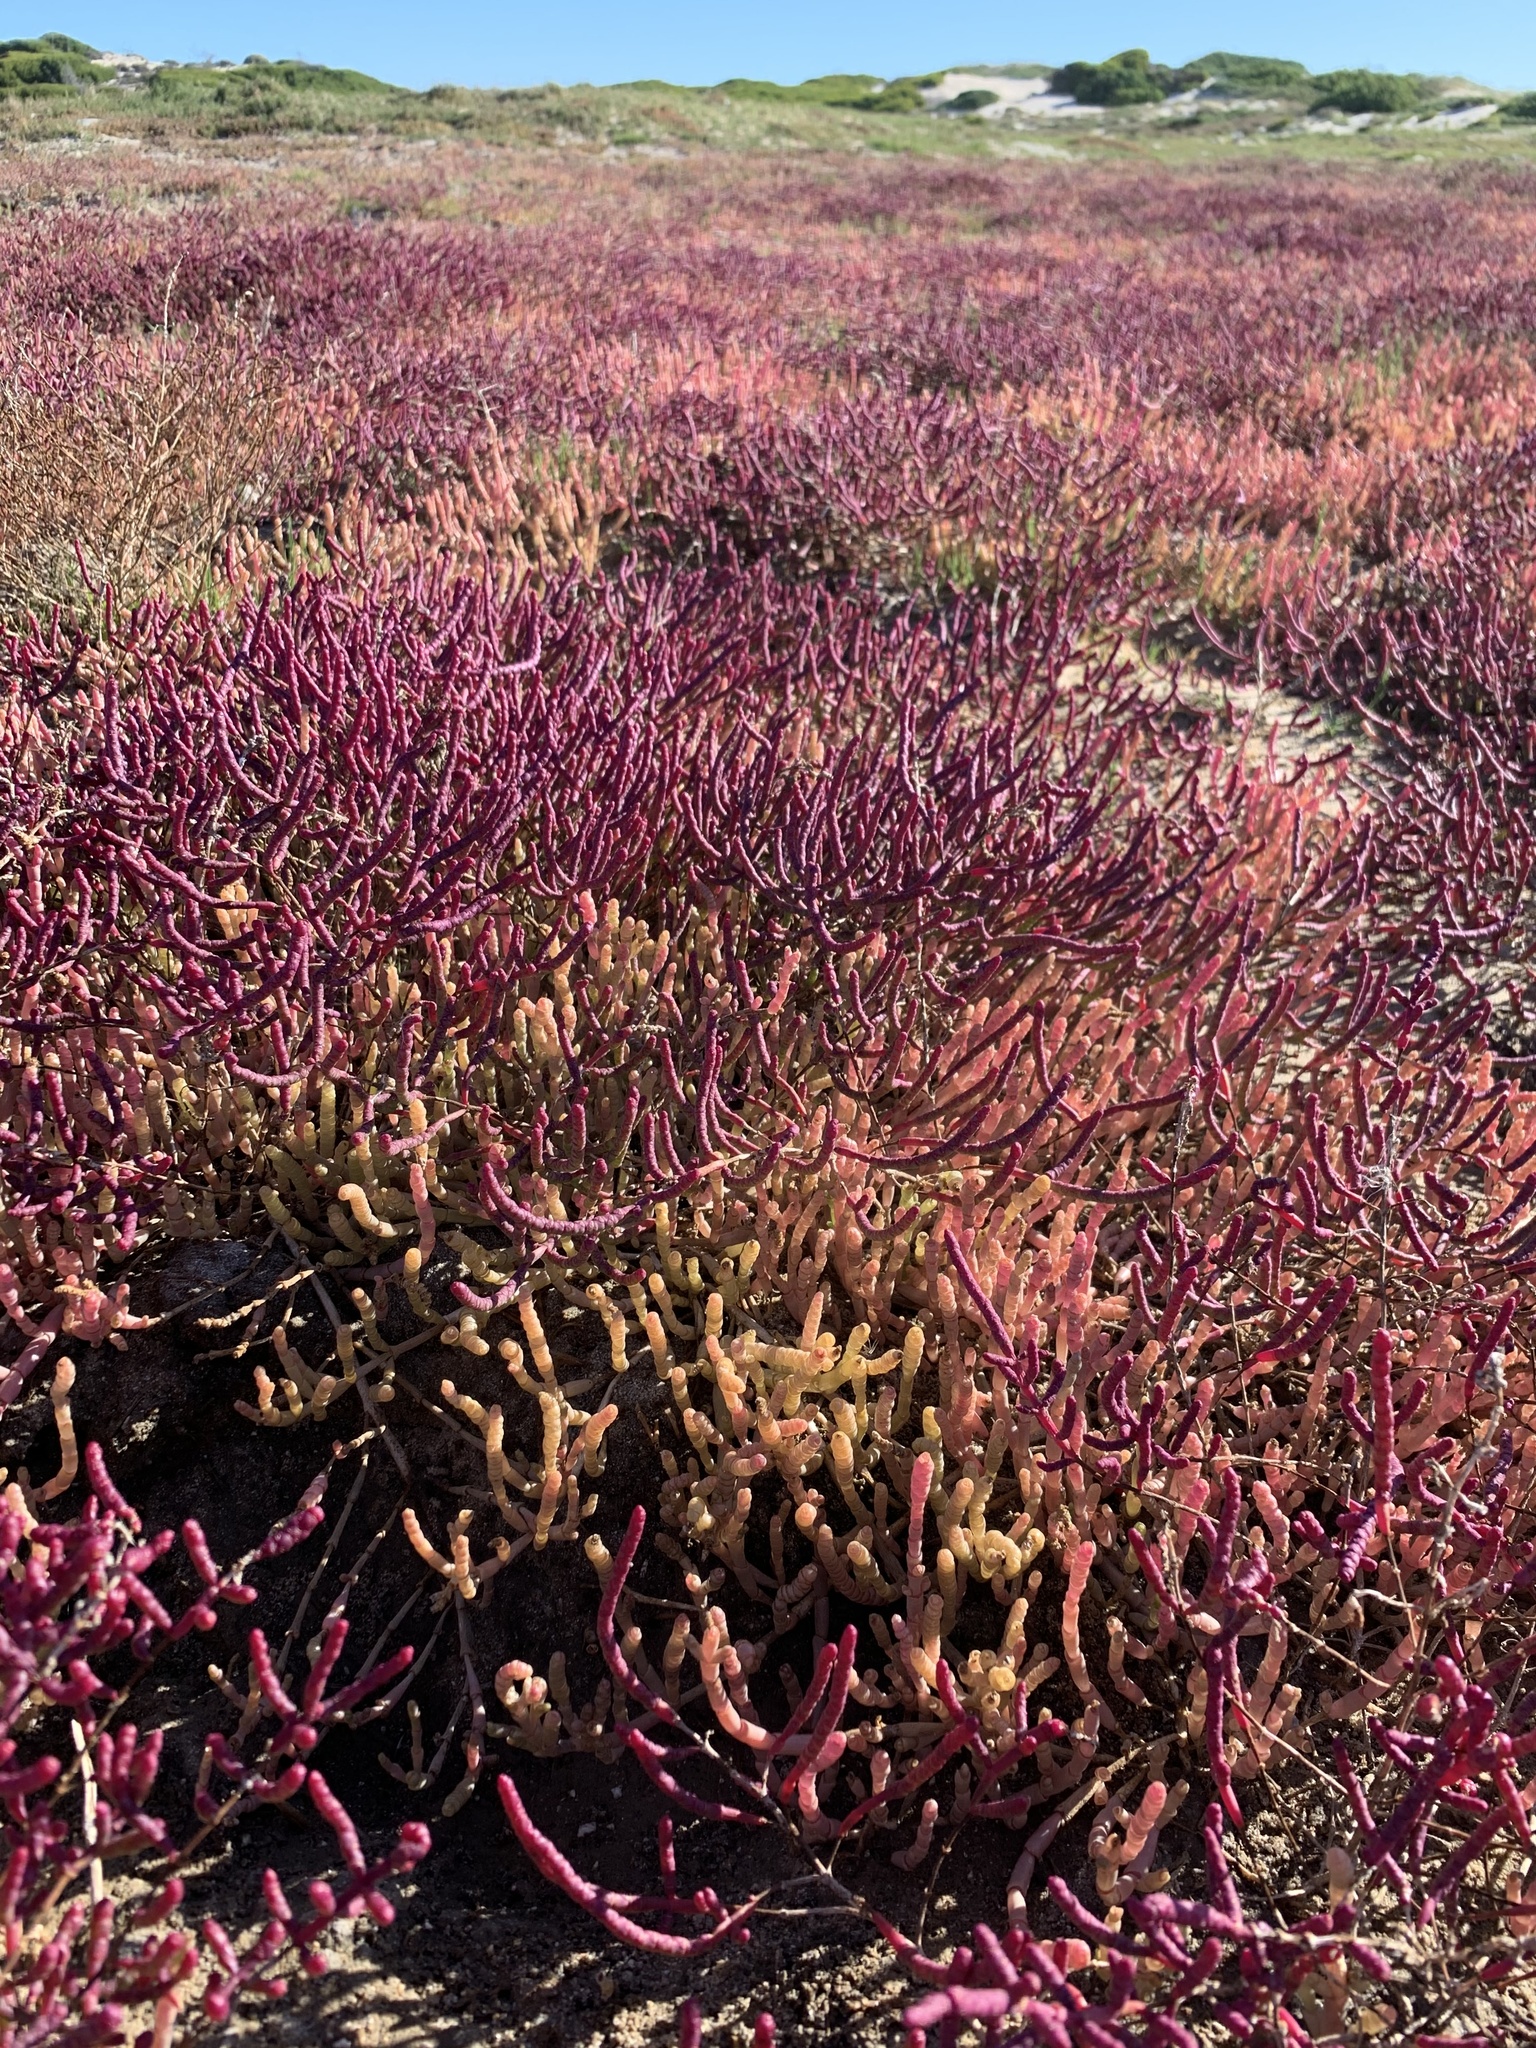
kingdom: Plantae
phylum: Tracheophyta
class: Magnoliopsida
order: Caryophyllales
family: Amaranthaceae
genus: Salicornia
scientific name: Salicornia meyeriana
